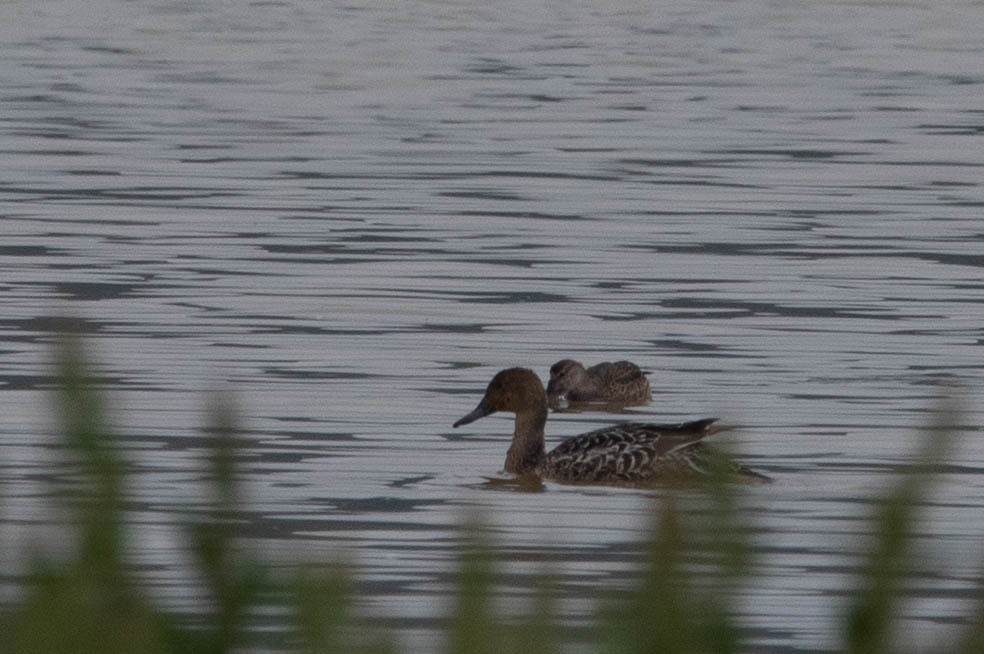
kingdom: Animalia
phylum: Chordata
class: Aves
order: Anseriformes
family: Anatidae
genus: Anas
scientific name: Anas acuta
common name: Northern pintail
